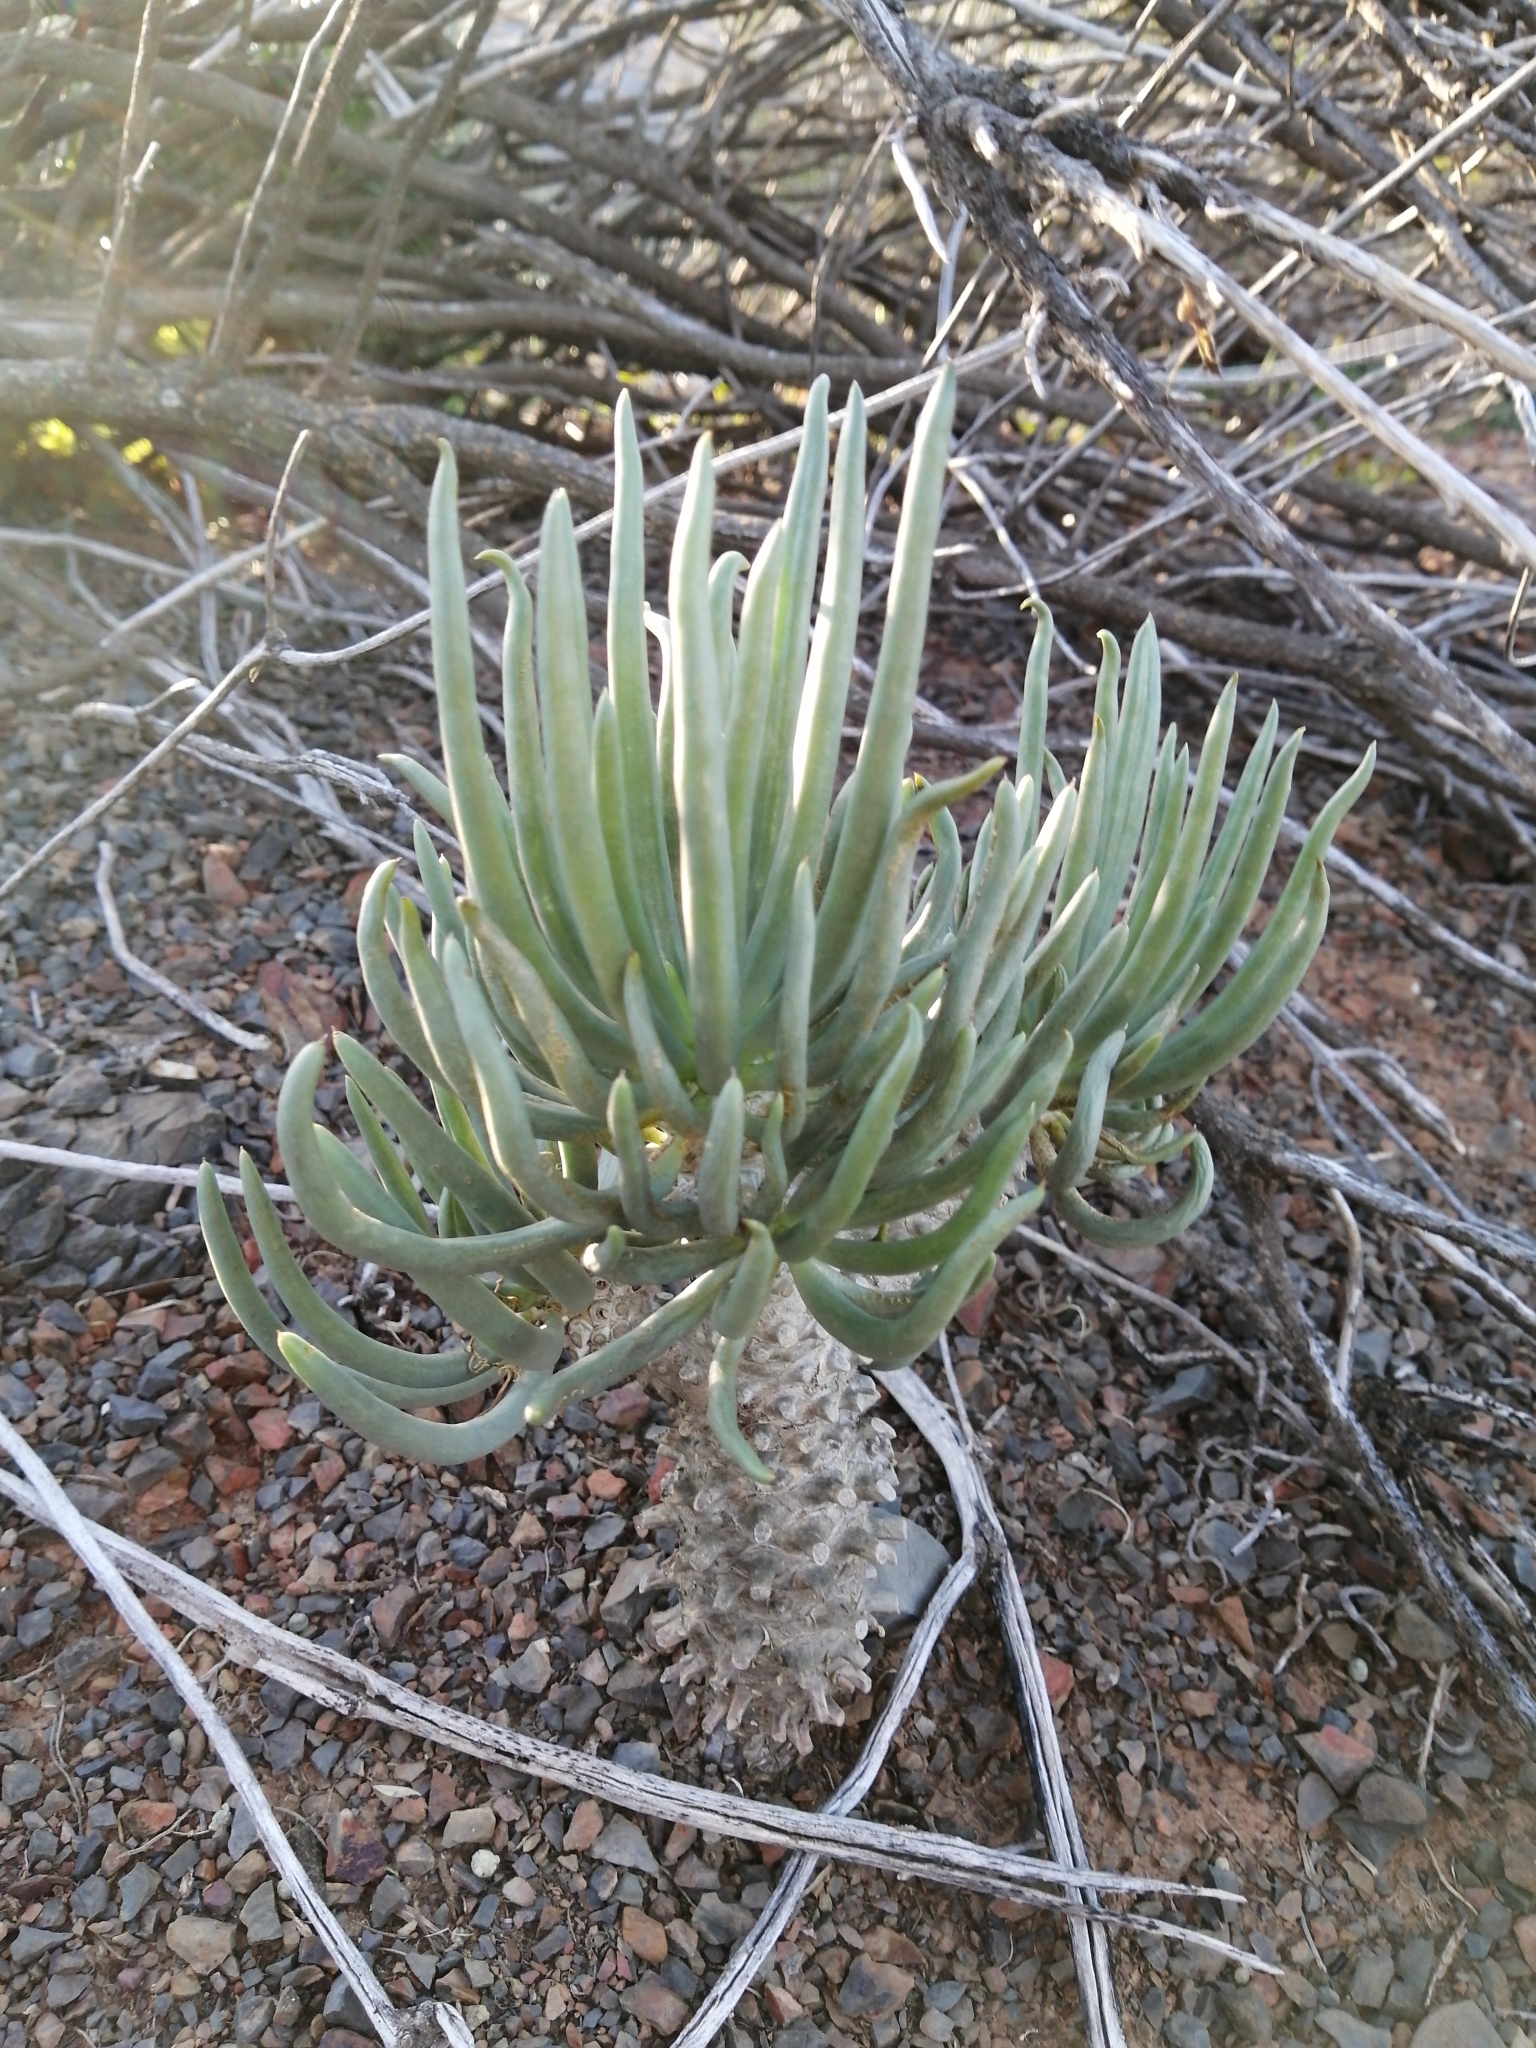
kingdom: Plantae
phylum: Tracheophyta
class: Magnoliopsida
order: Saxifragales
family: Crassulaceae
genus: Tylecodon
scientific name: Tylecodon wallichii
